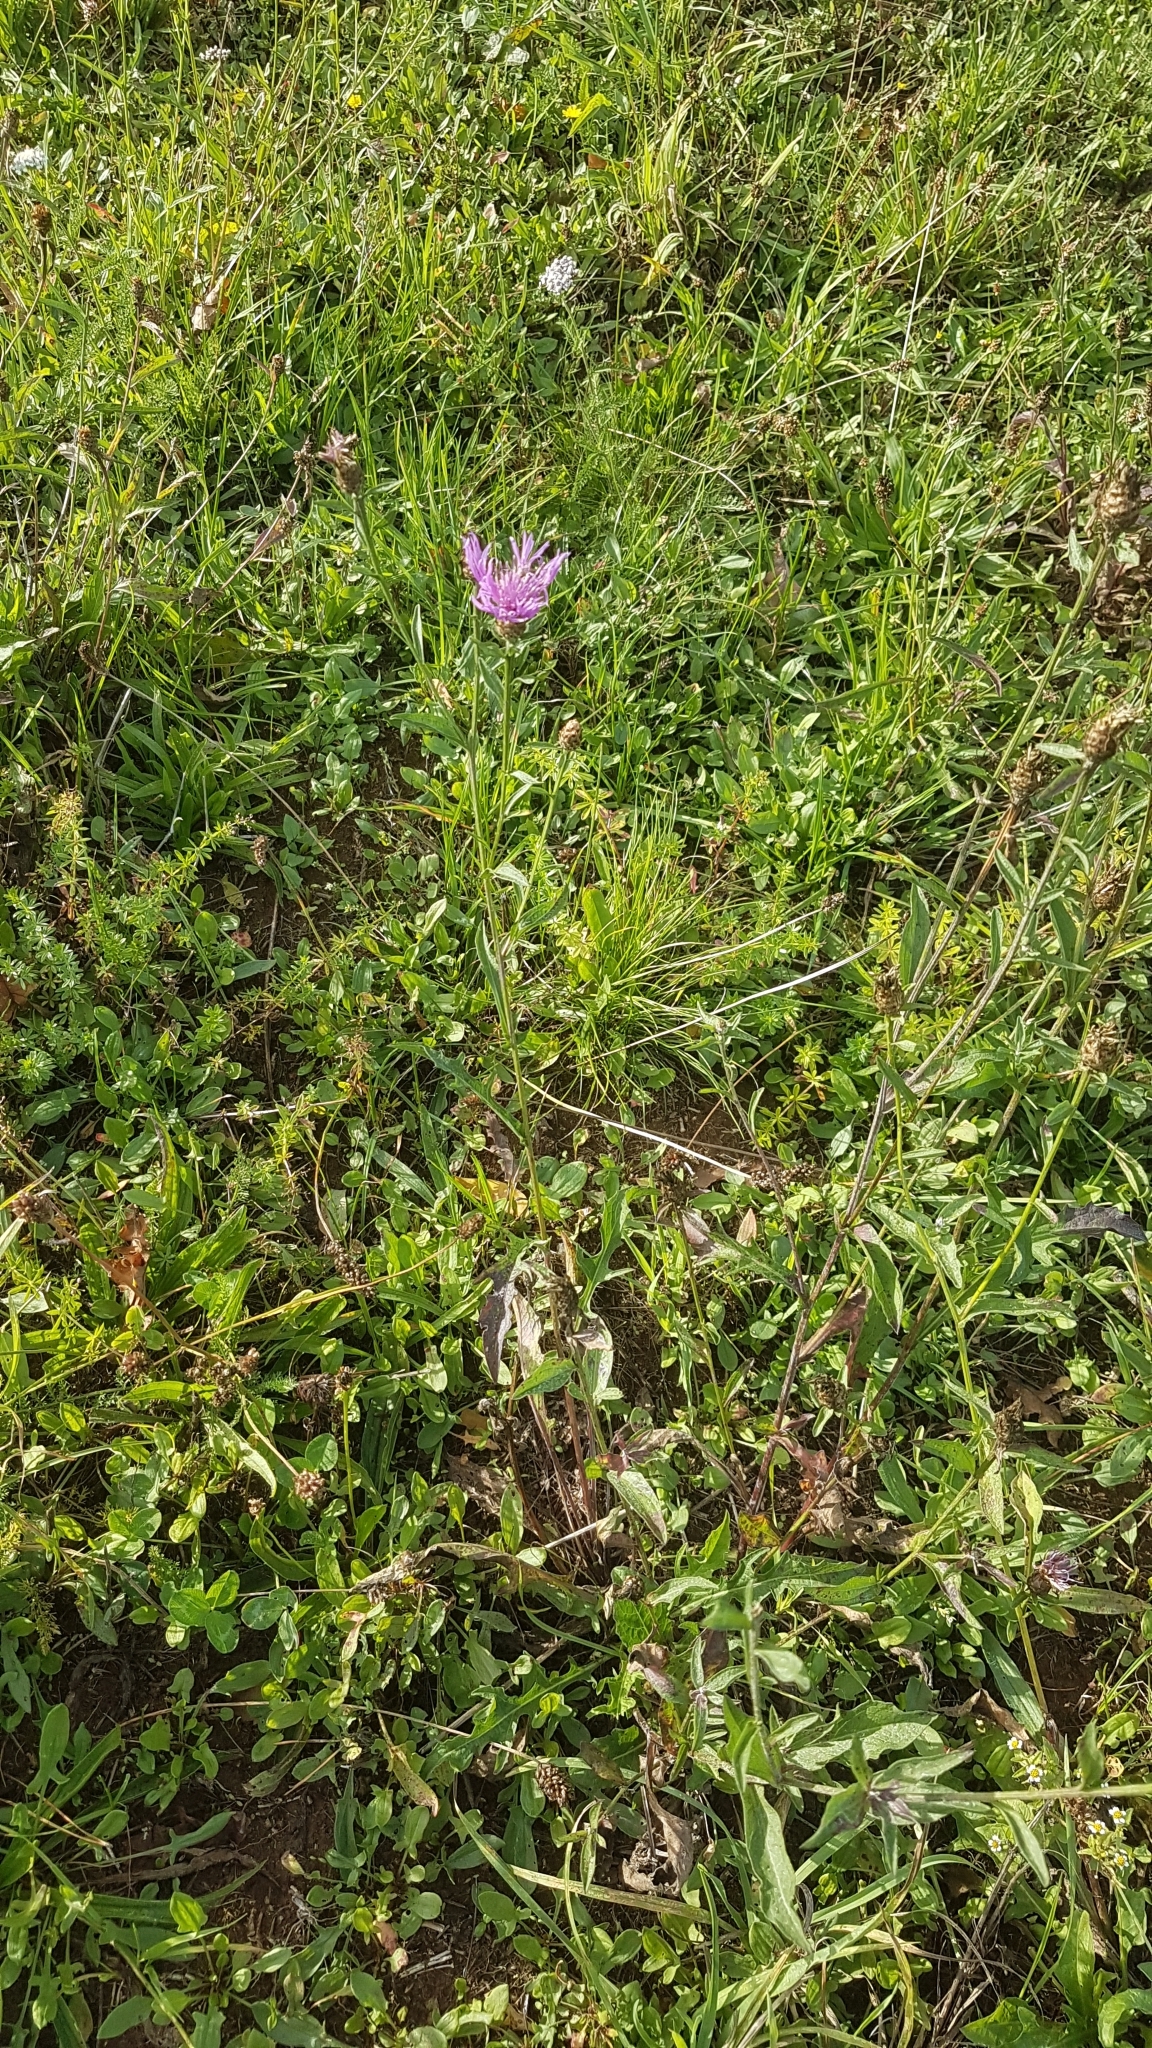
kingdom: Plantae
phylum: Tracheophyta
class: Magnoliopsida
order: Asterales
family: Asteraceae
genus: Centaurea
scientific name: Centaurea jacea
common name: Brown knapweed
